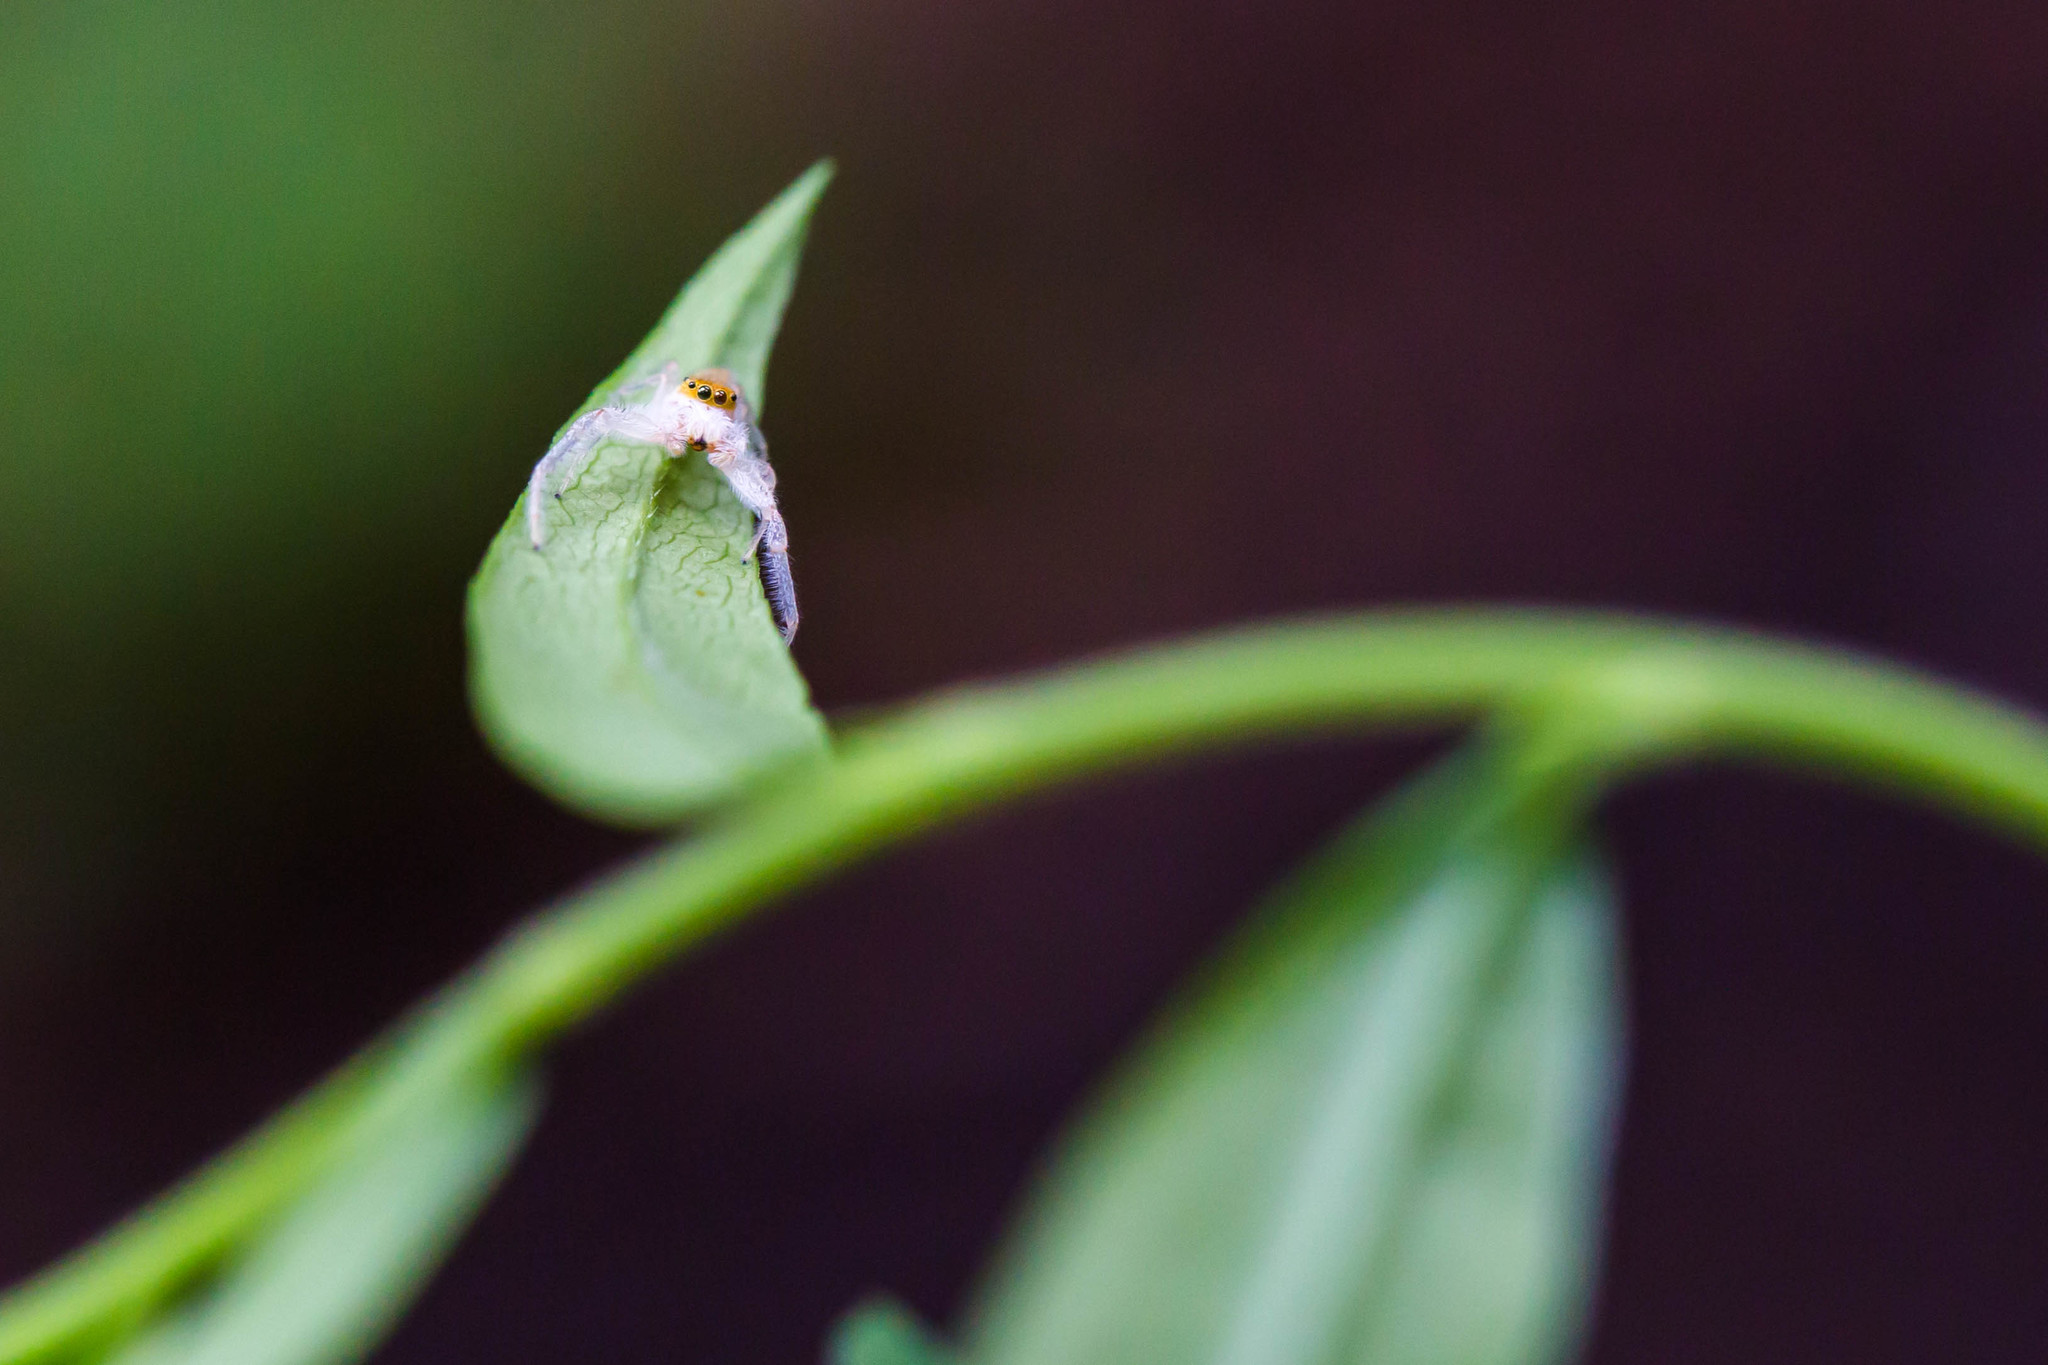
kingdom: Animalia
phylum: Arthropoda
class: Arachnida
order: Araneae
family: Salticidae
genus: Hentzia
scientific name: Hentzia mitrata
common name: White-jawed jumping spider
